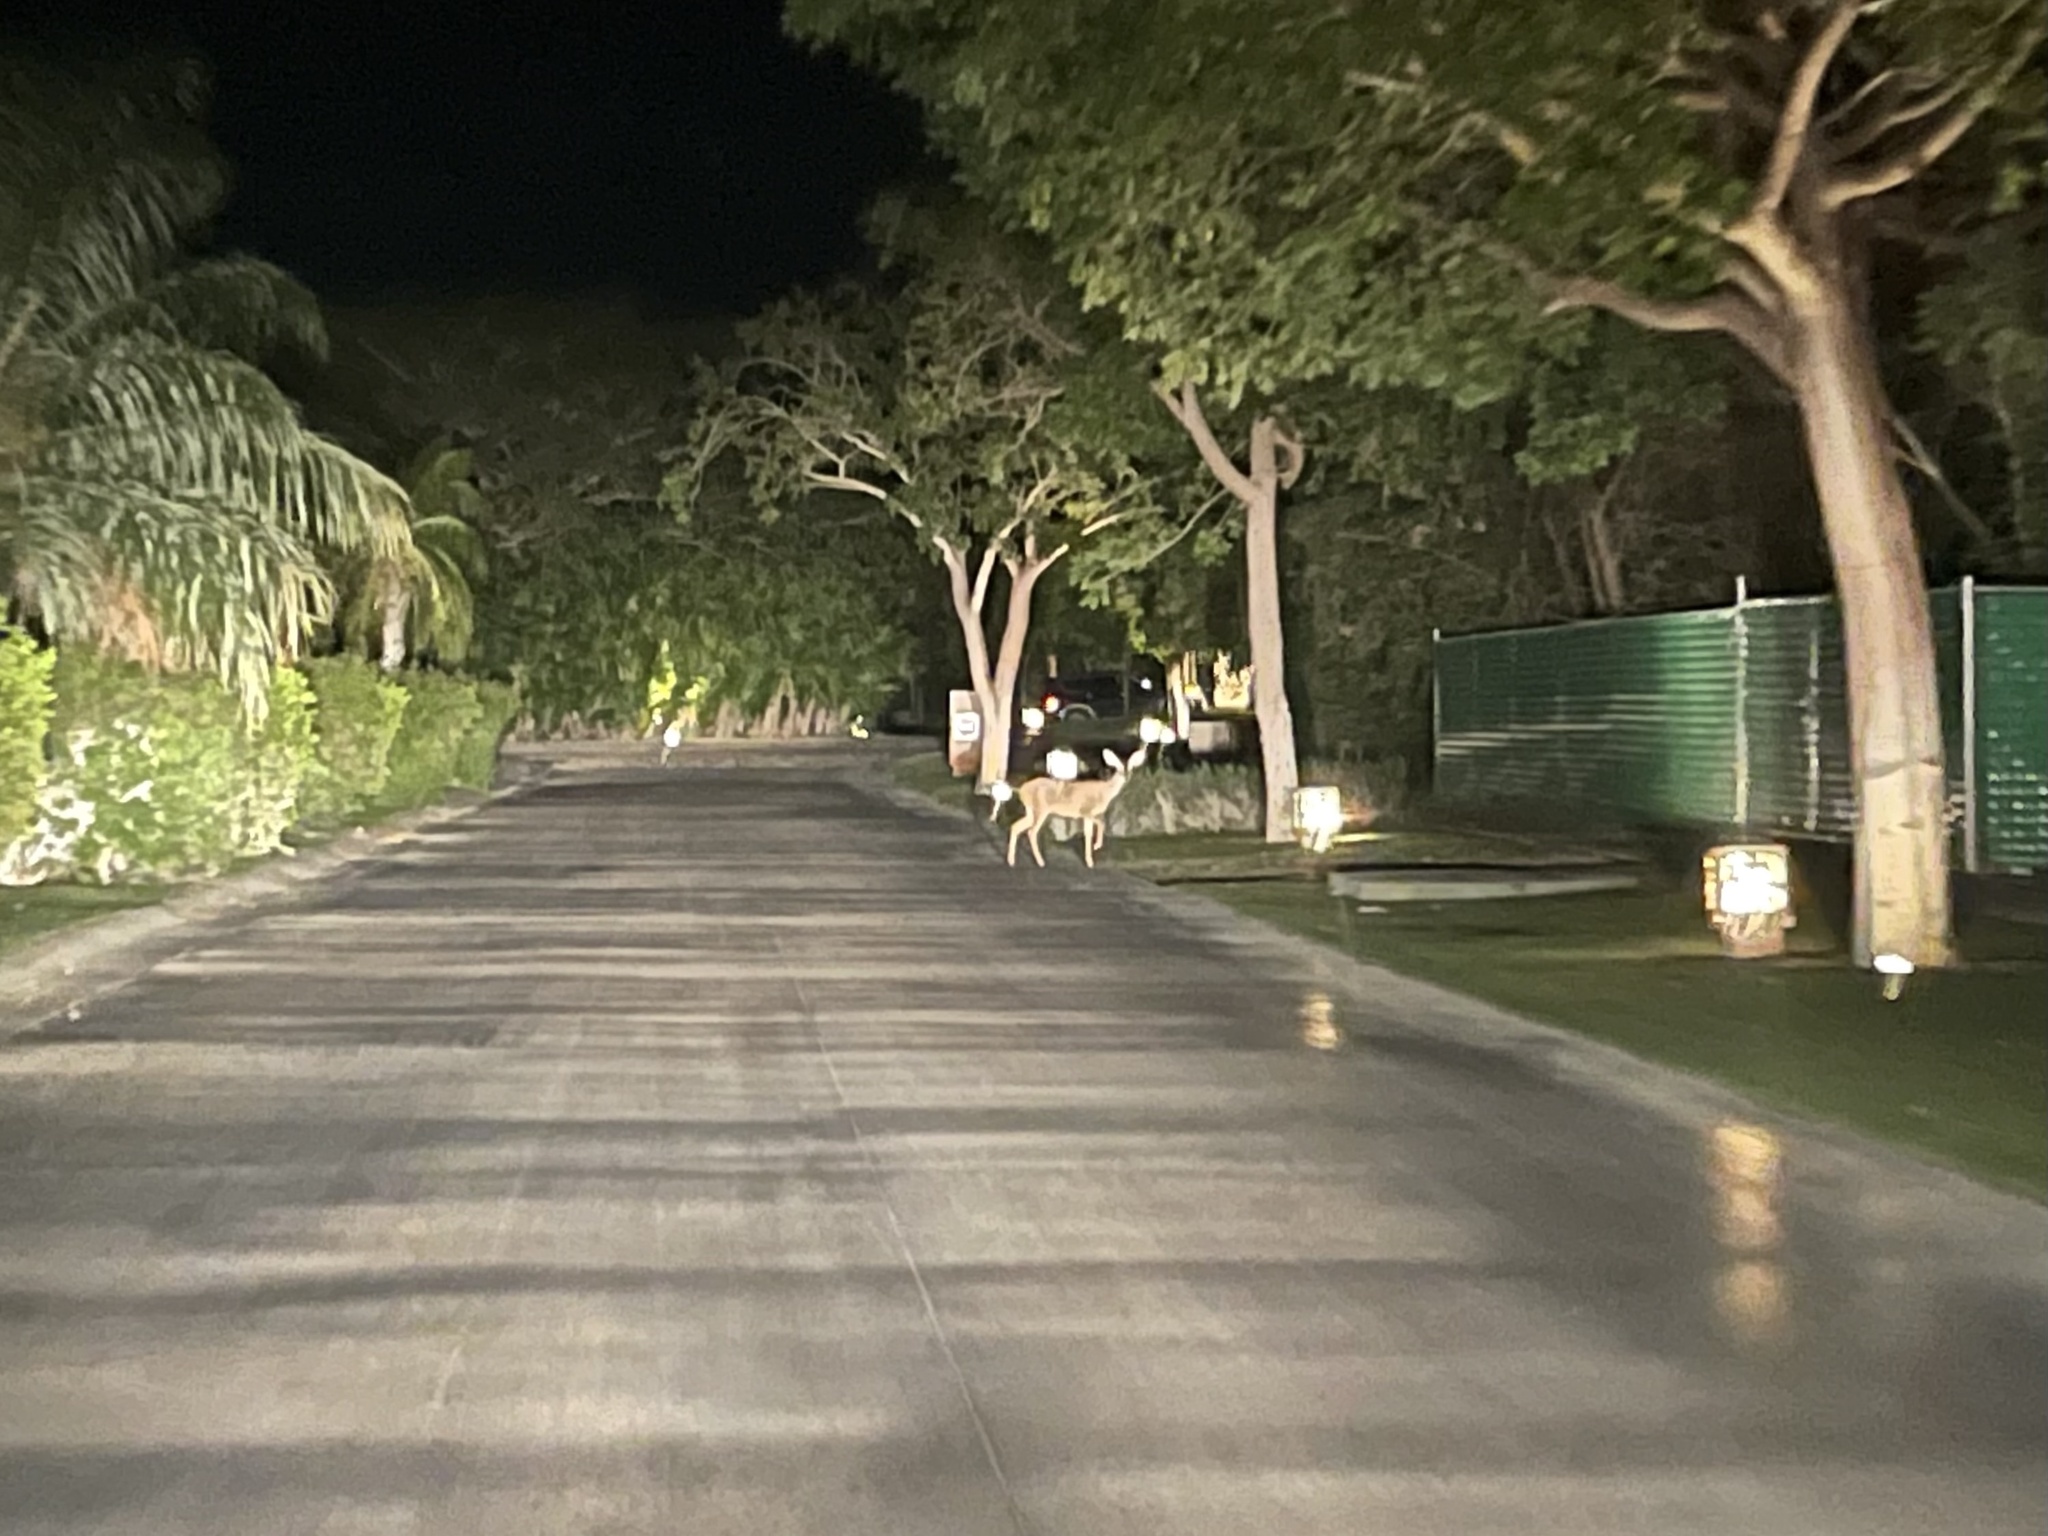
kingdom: Animalia
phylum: Chordata
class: Mammalia
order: Artiodactyla
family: Cervidae
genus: Odocoileus
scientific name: Odocoileus virginianus
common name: White-tailed deer
